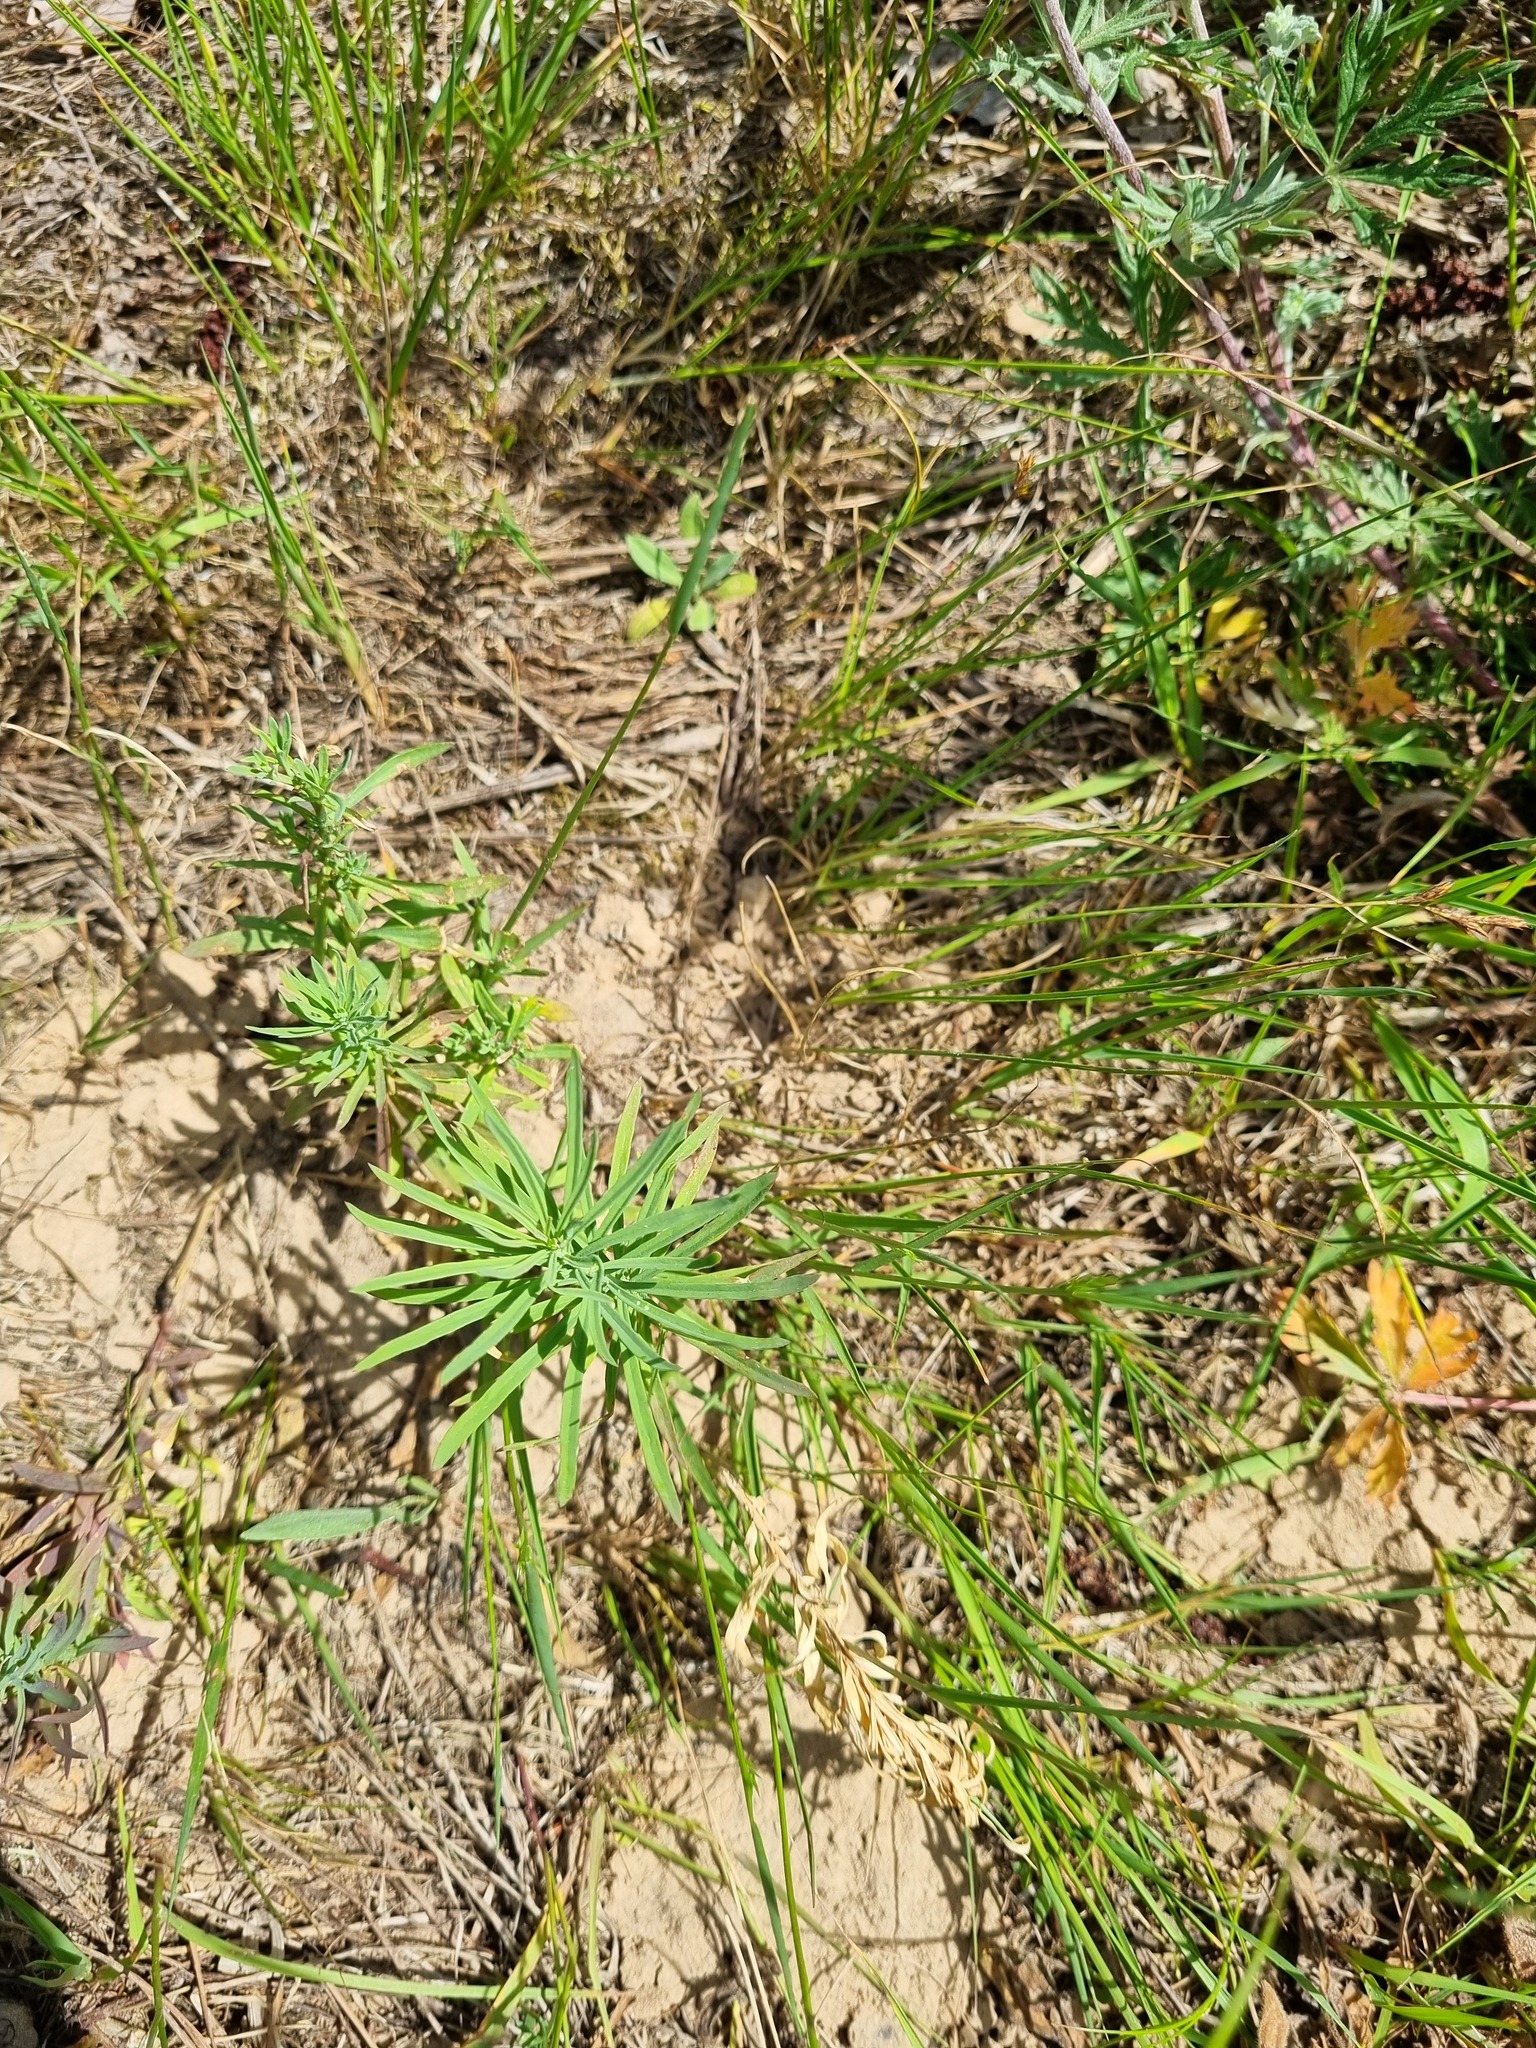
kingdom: Plantae
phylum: Tracheophyta
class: Magnoliopsida
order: Lamiales
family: Plantaginaceae
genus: Linaria
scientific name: Linaria vulgaris
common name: Butter and eggs
